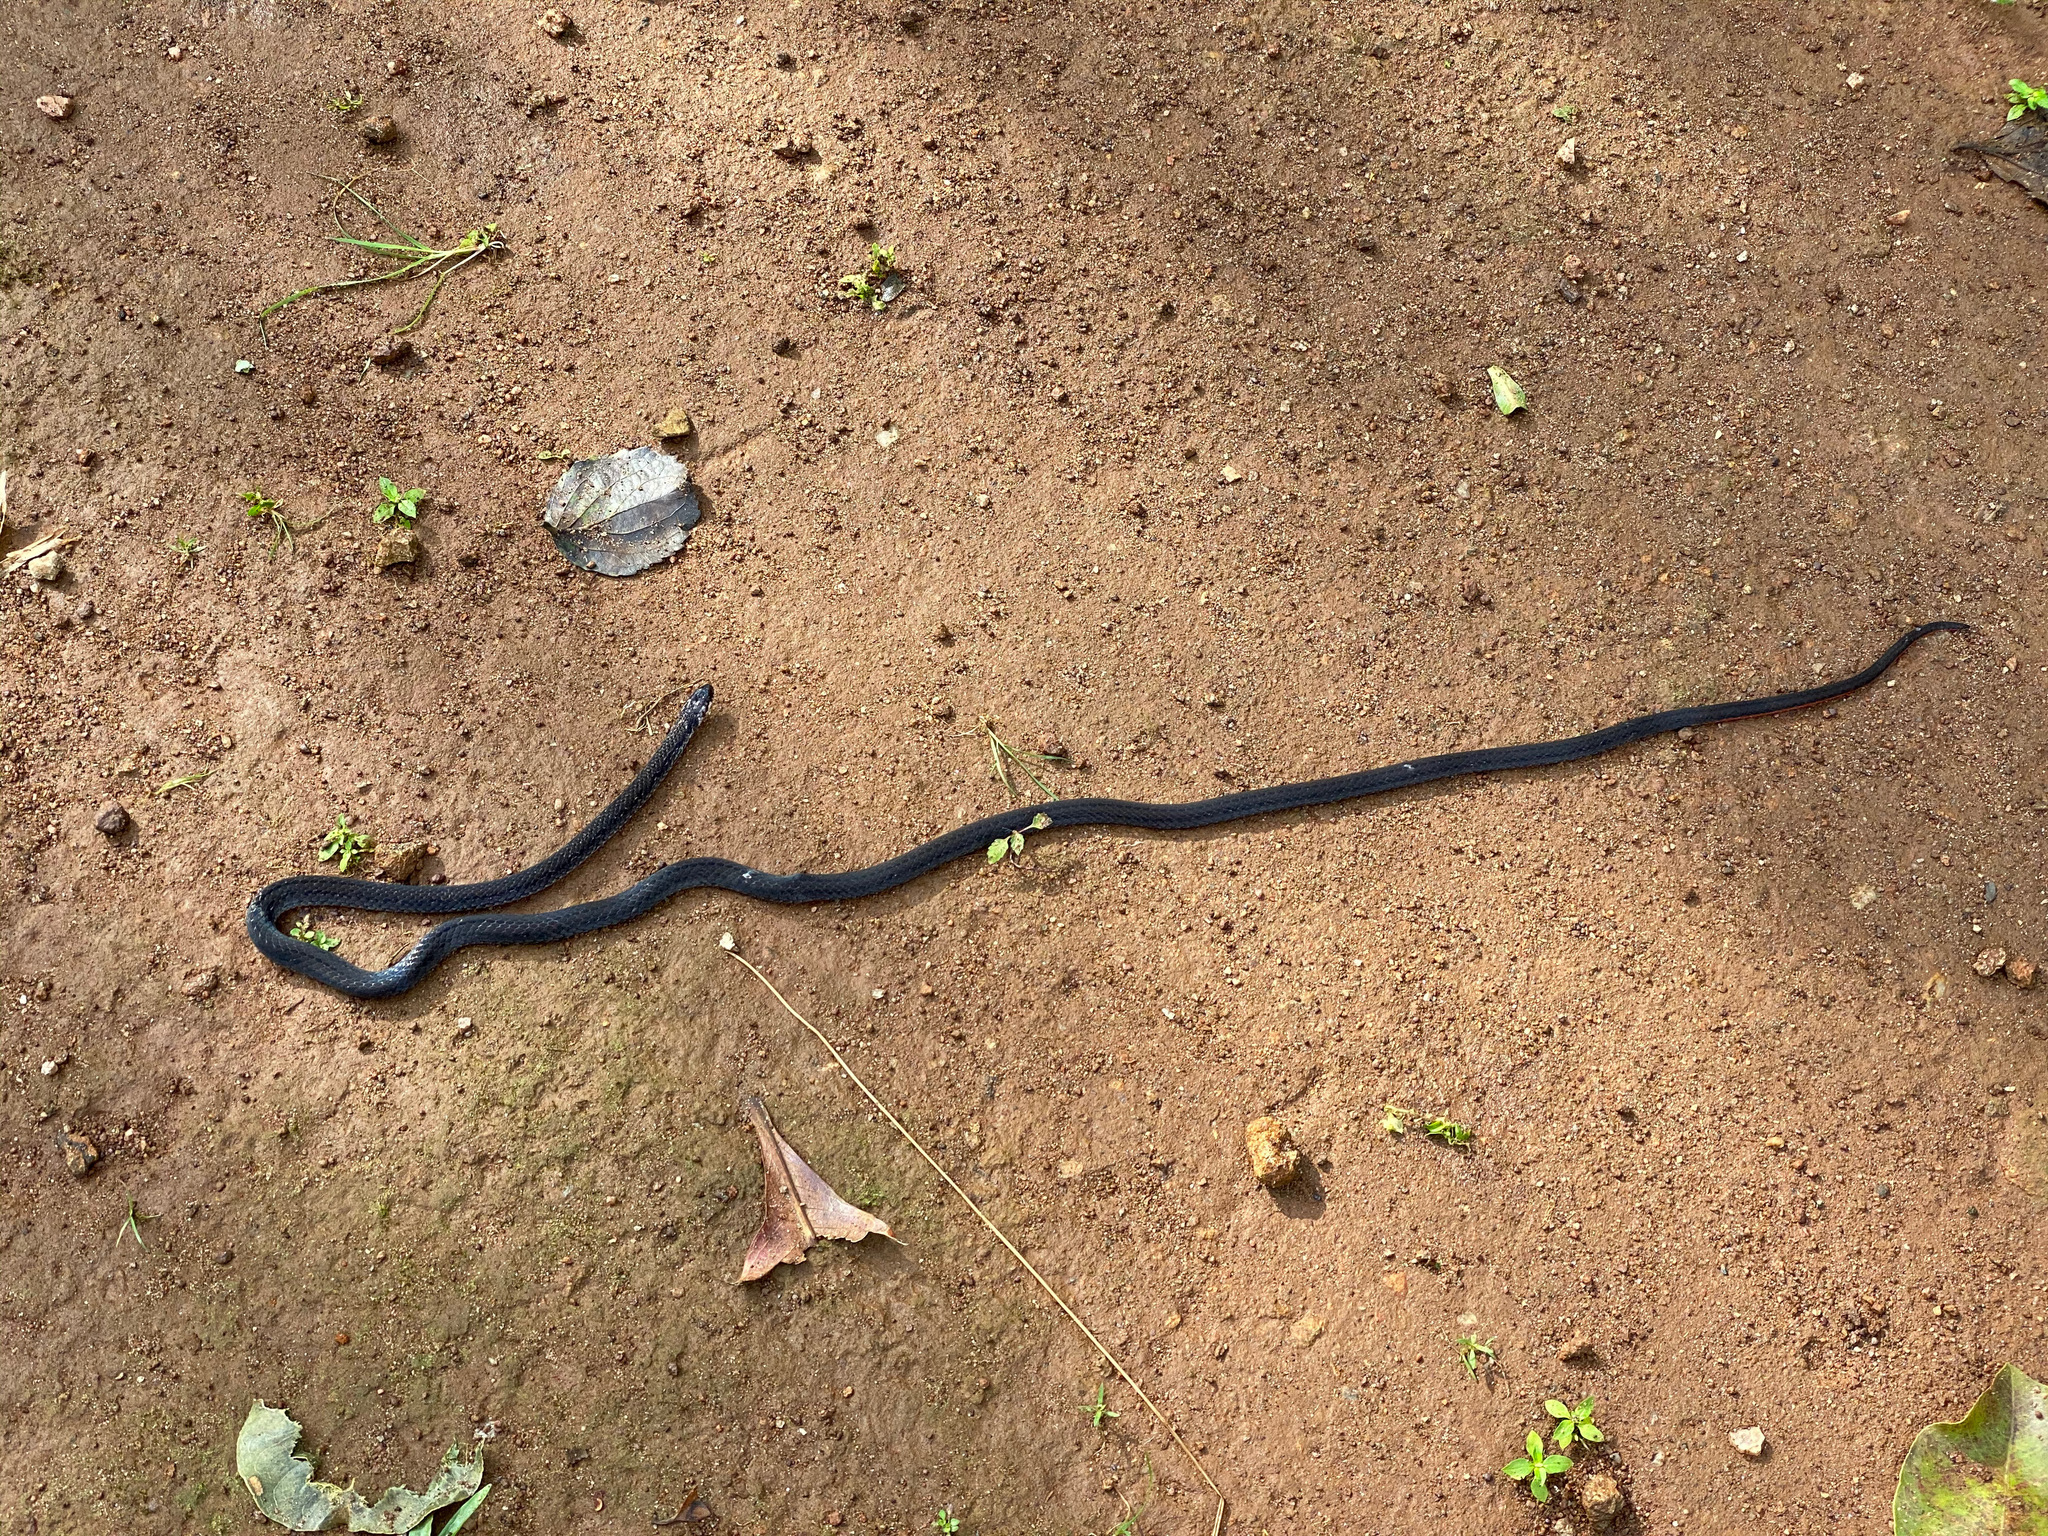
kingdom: Animalia
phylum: Chordata
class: Squamata
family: Elapidae
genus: Calliophis
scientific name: Calliophis nigrescens
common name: Black coral snake
